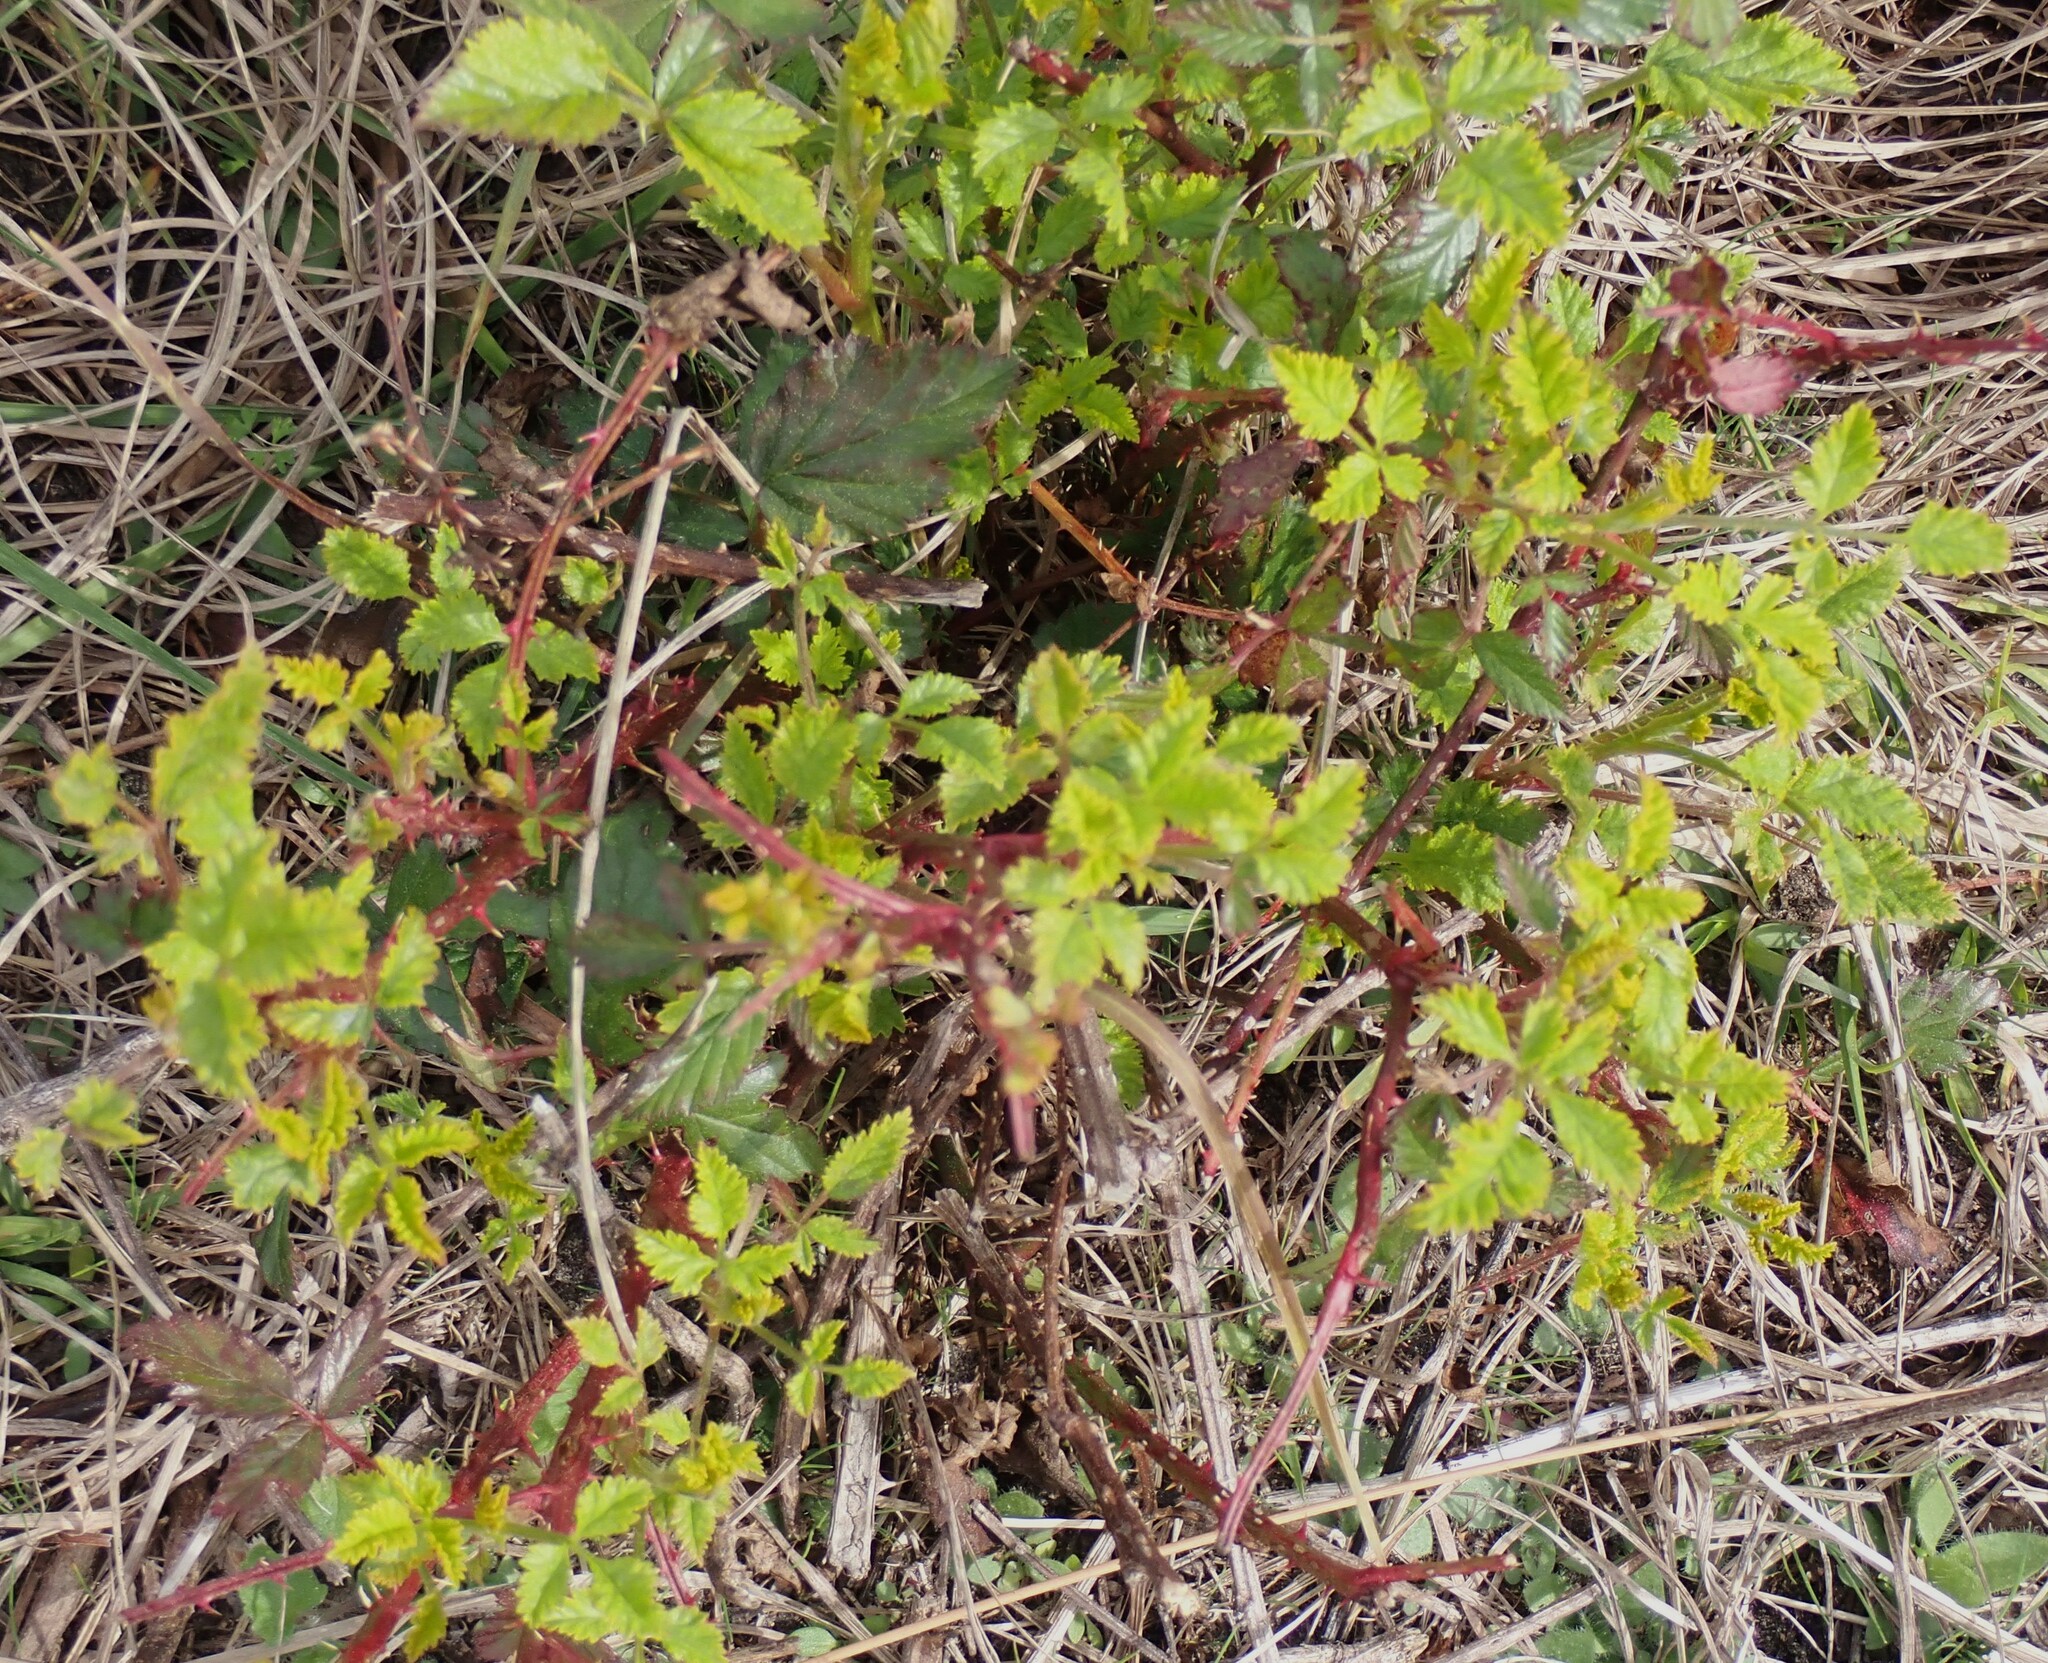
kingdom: Plantae
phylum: Tracheophyta
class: Magnoliopsida
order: Rosales
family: Rosaceae
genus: Rubus
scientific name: Rubus trivialis
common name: Southern dewberry
